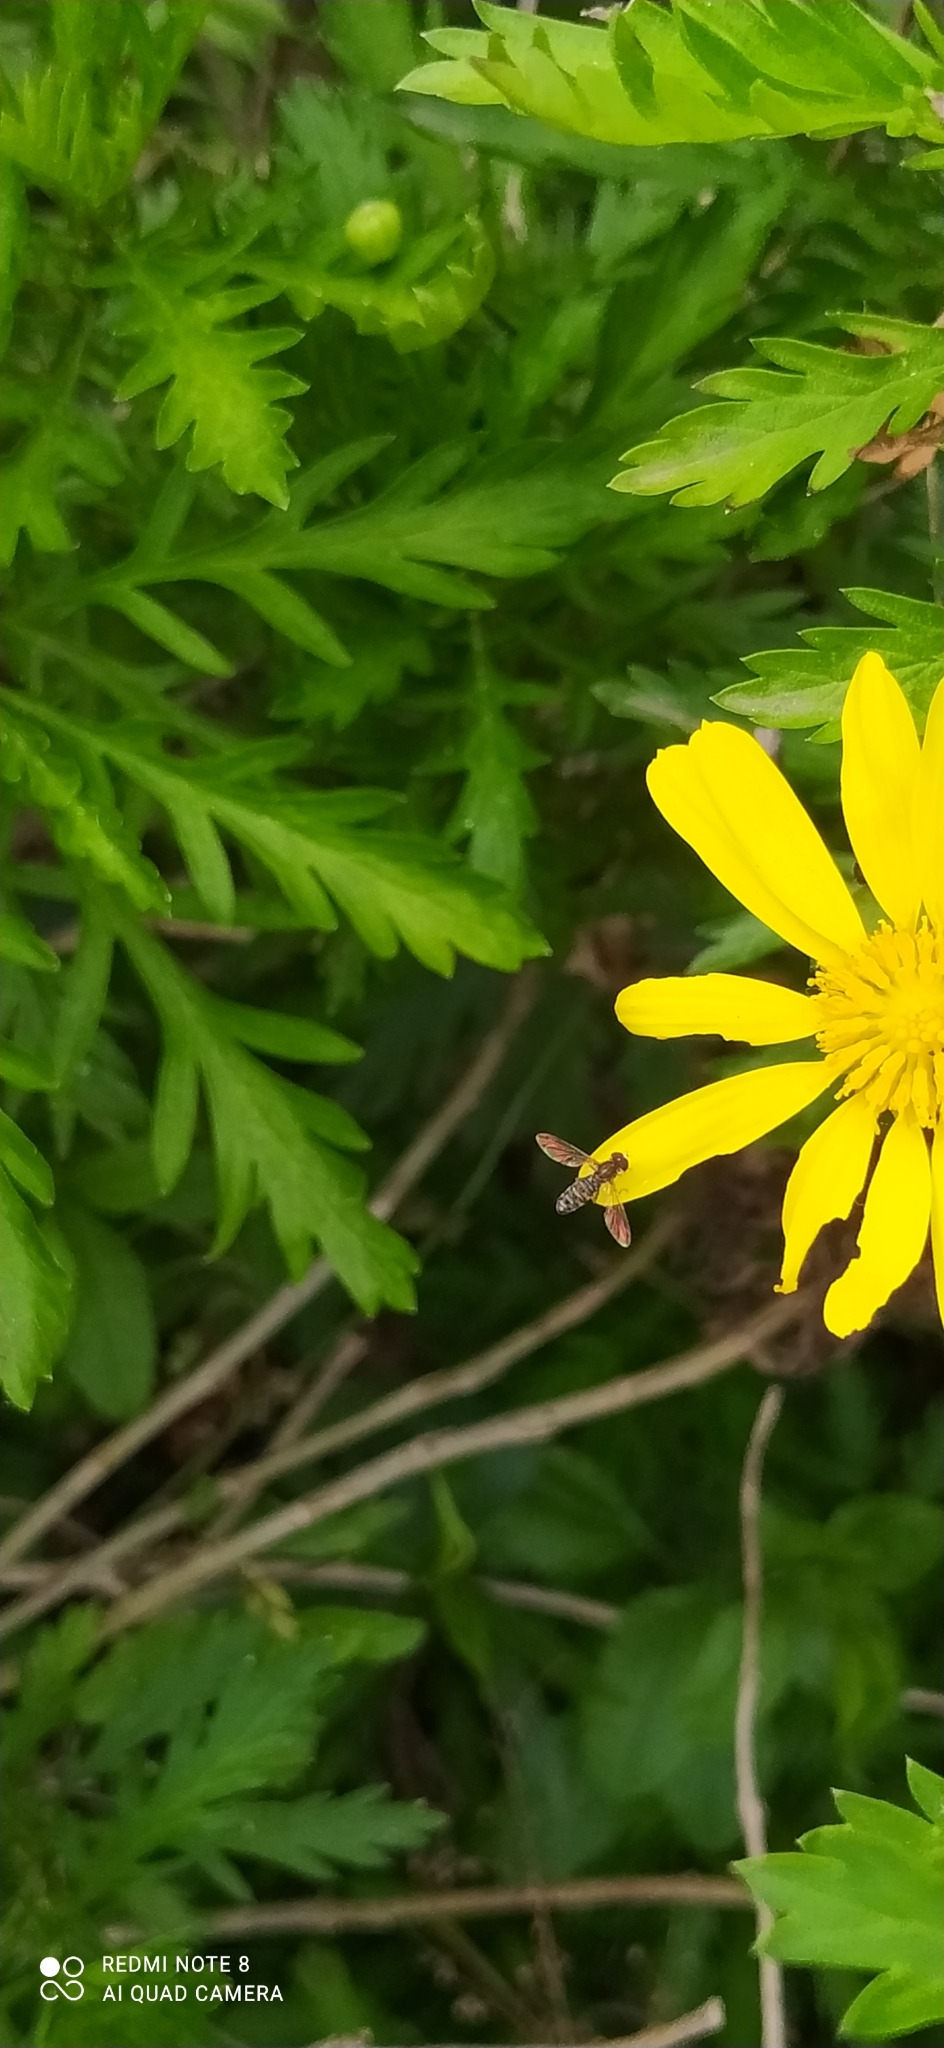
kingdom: Animalia
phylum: Arthropoda
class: Insecta
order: Diptera
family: Syrphidae
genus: Toxomerus
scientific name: Toxomerus
